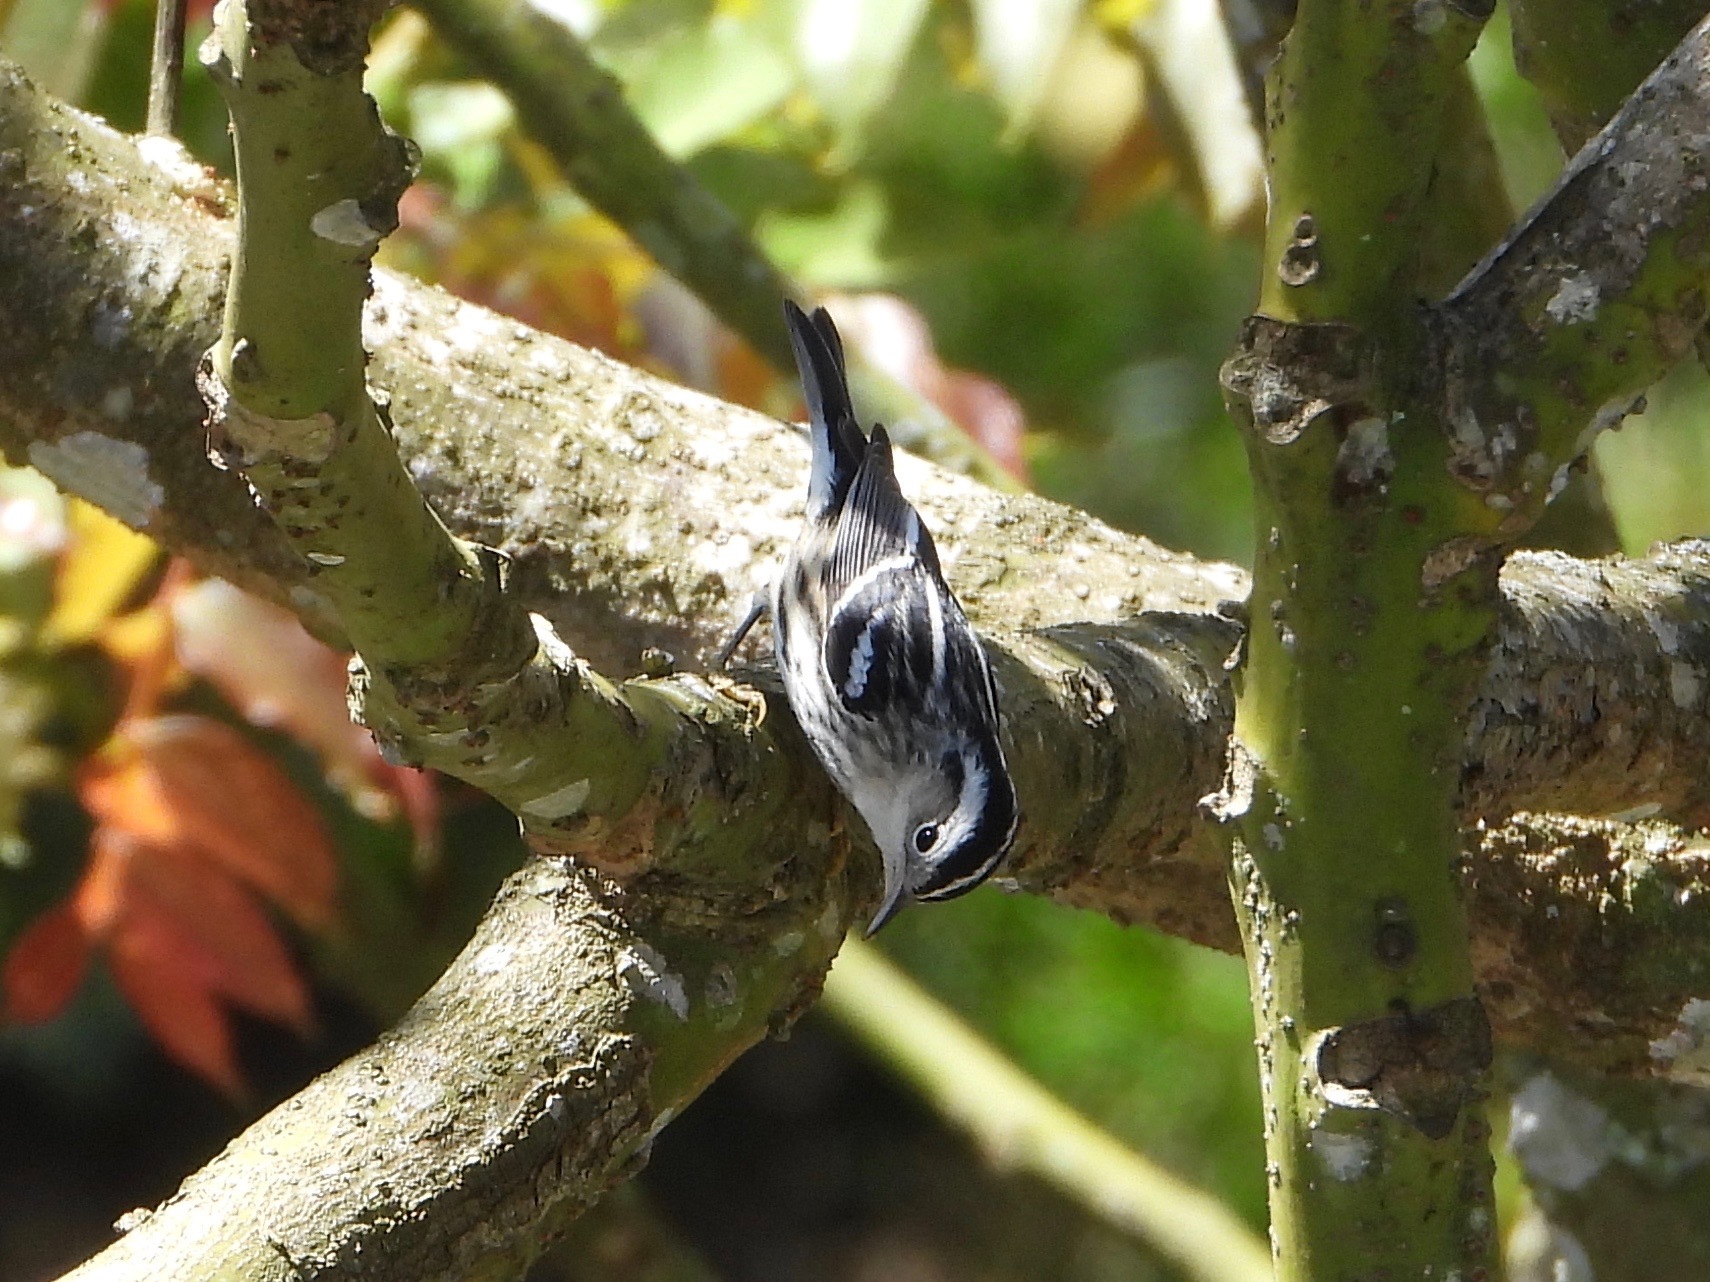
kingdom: Animalia
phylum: Chordata
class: Aves
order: Passeriformes
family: Parulidae
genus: Mniotilta
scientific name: Mniotilta varia
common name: Black-and-white warbler
